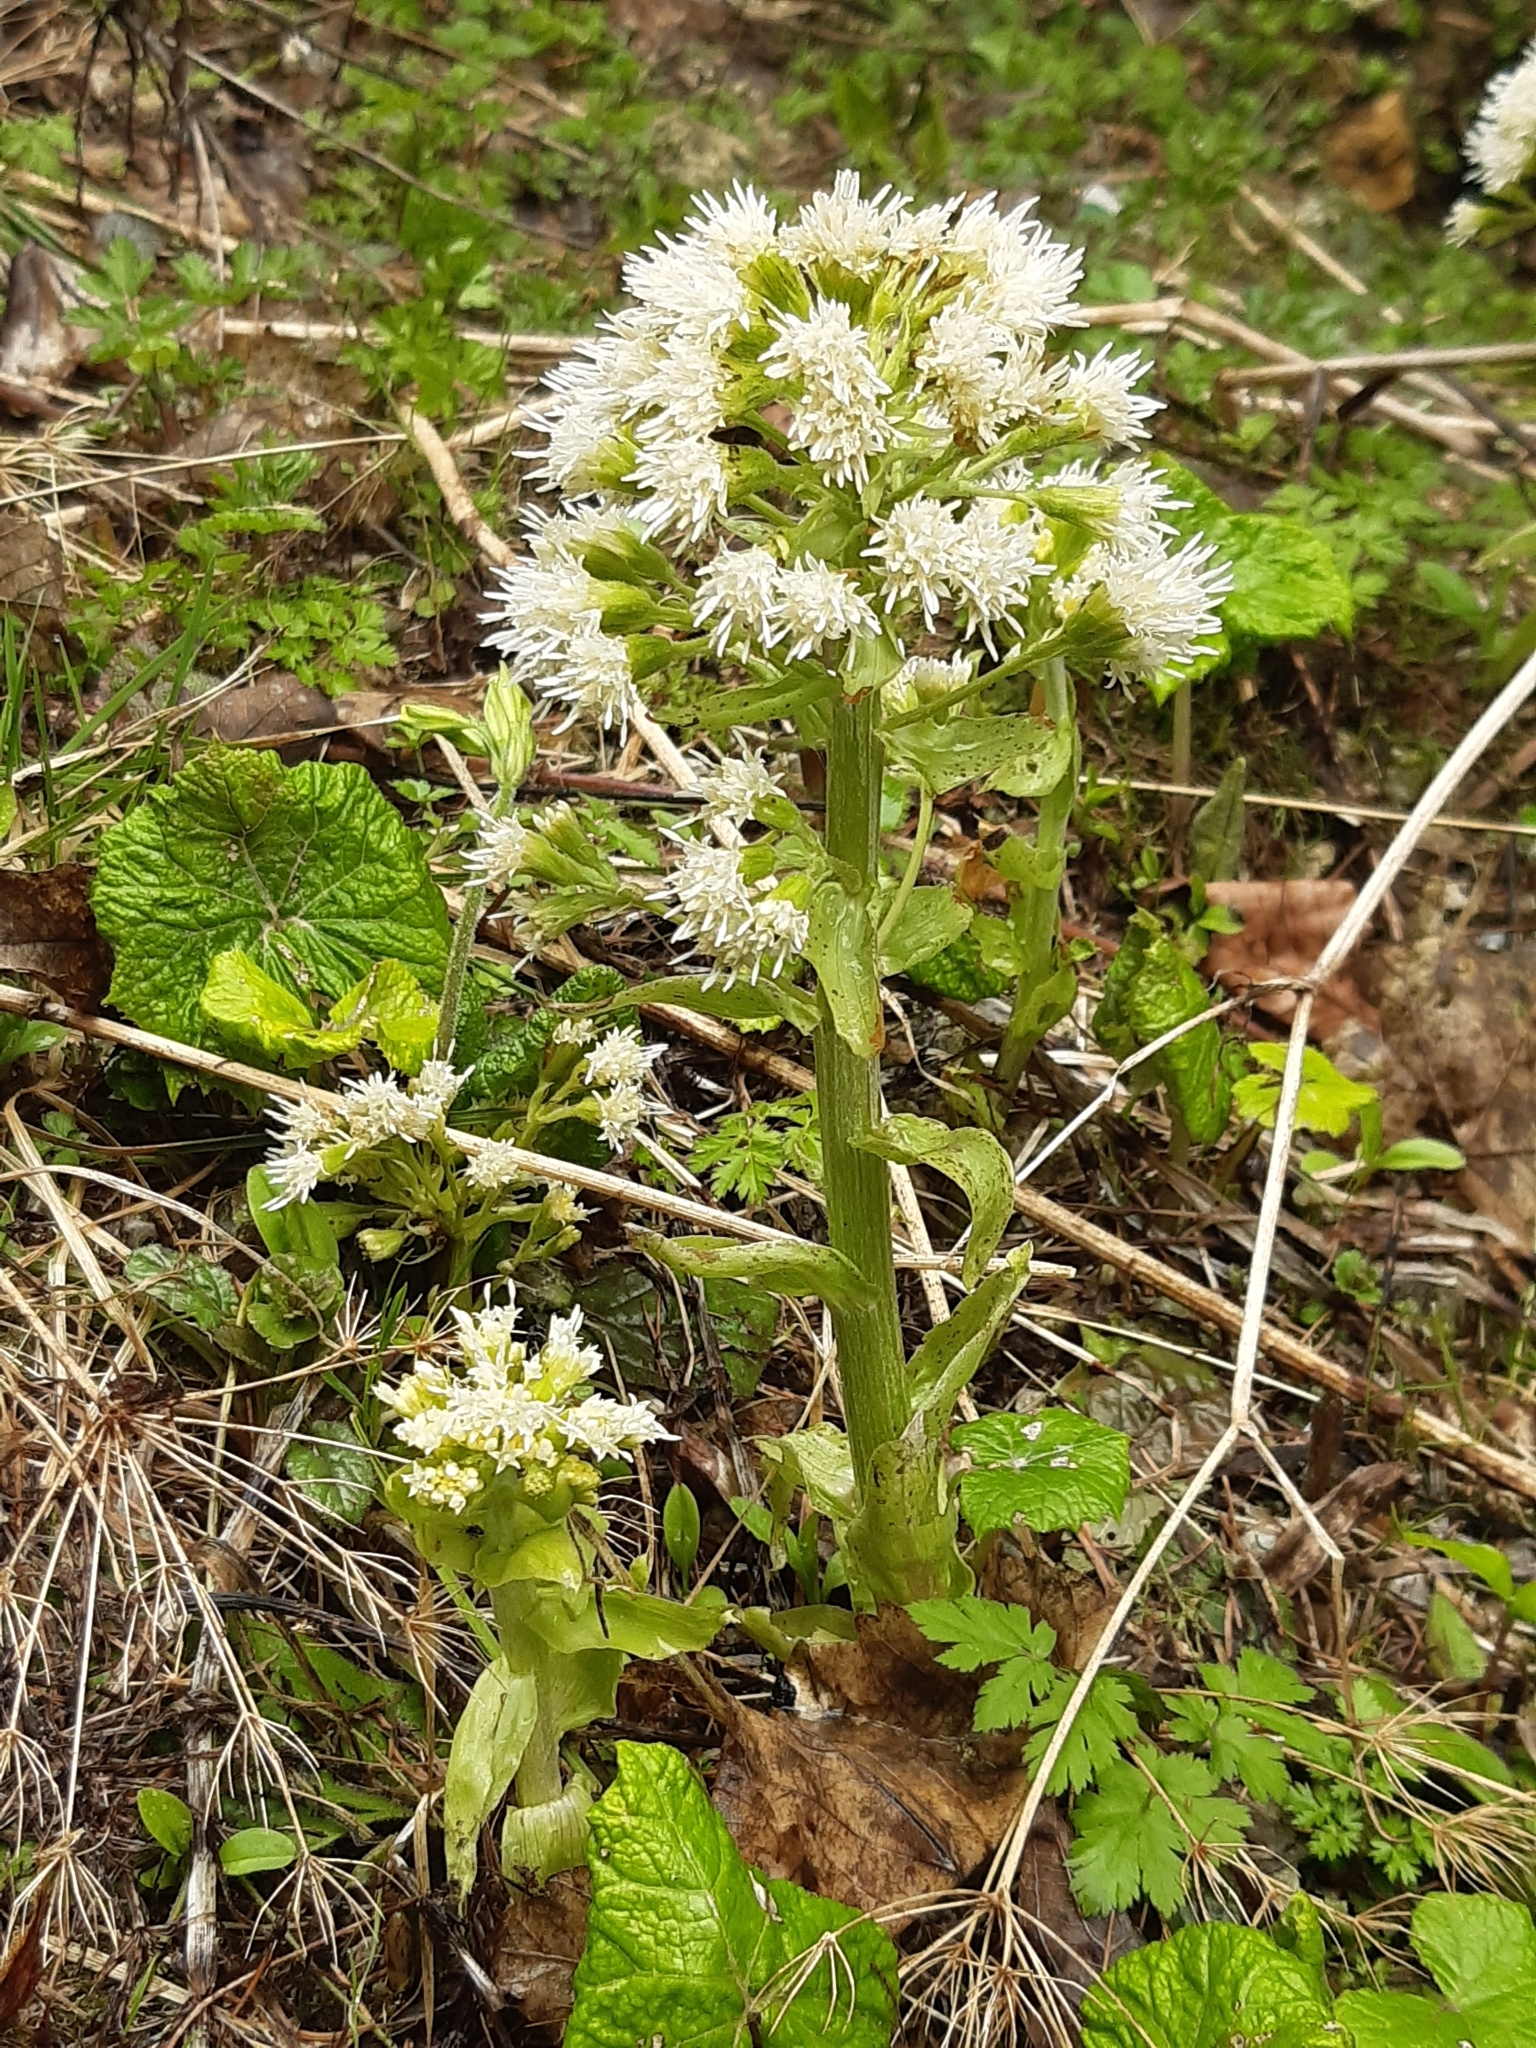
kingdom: Plantae
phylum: Tracheophyta
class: Magnoliopsida
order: Asterales
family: Asteraceae
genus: Petasites
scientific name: Petasites albus
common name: White butterbur
